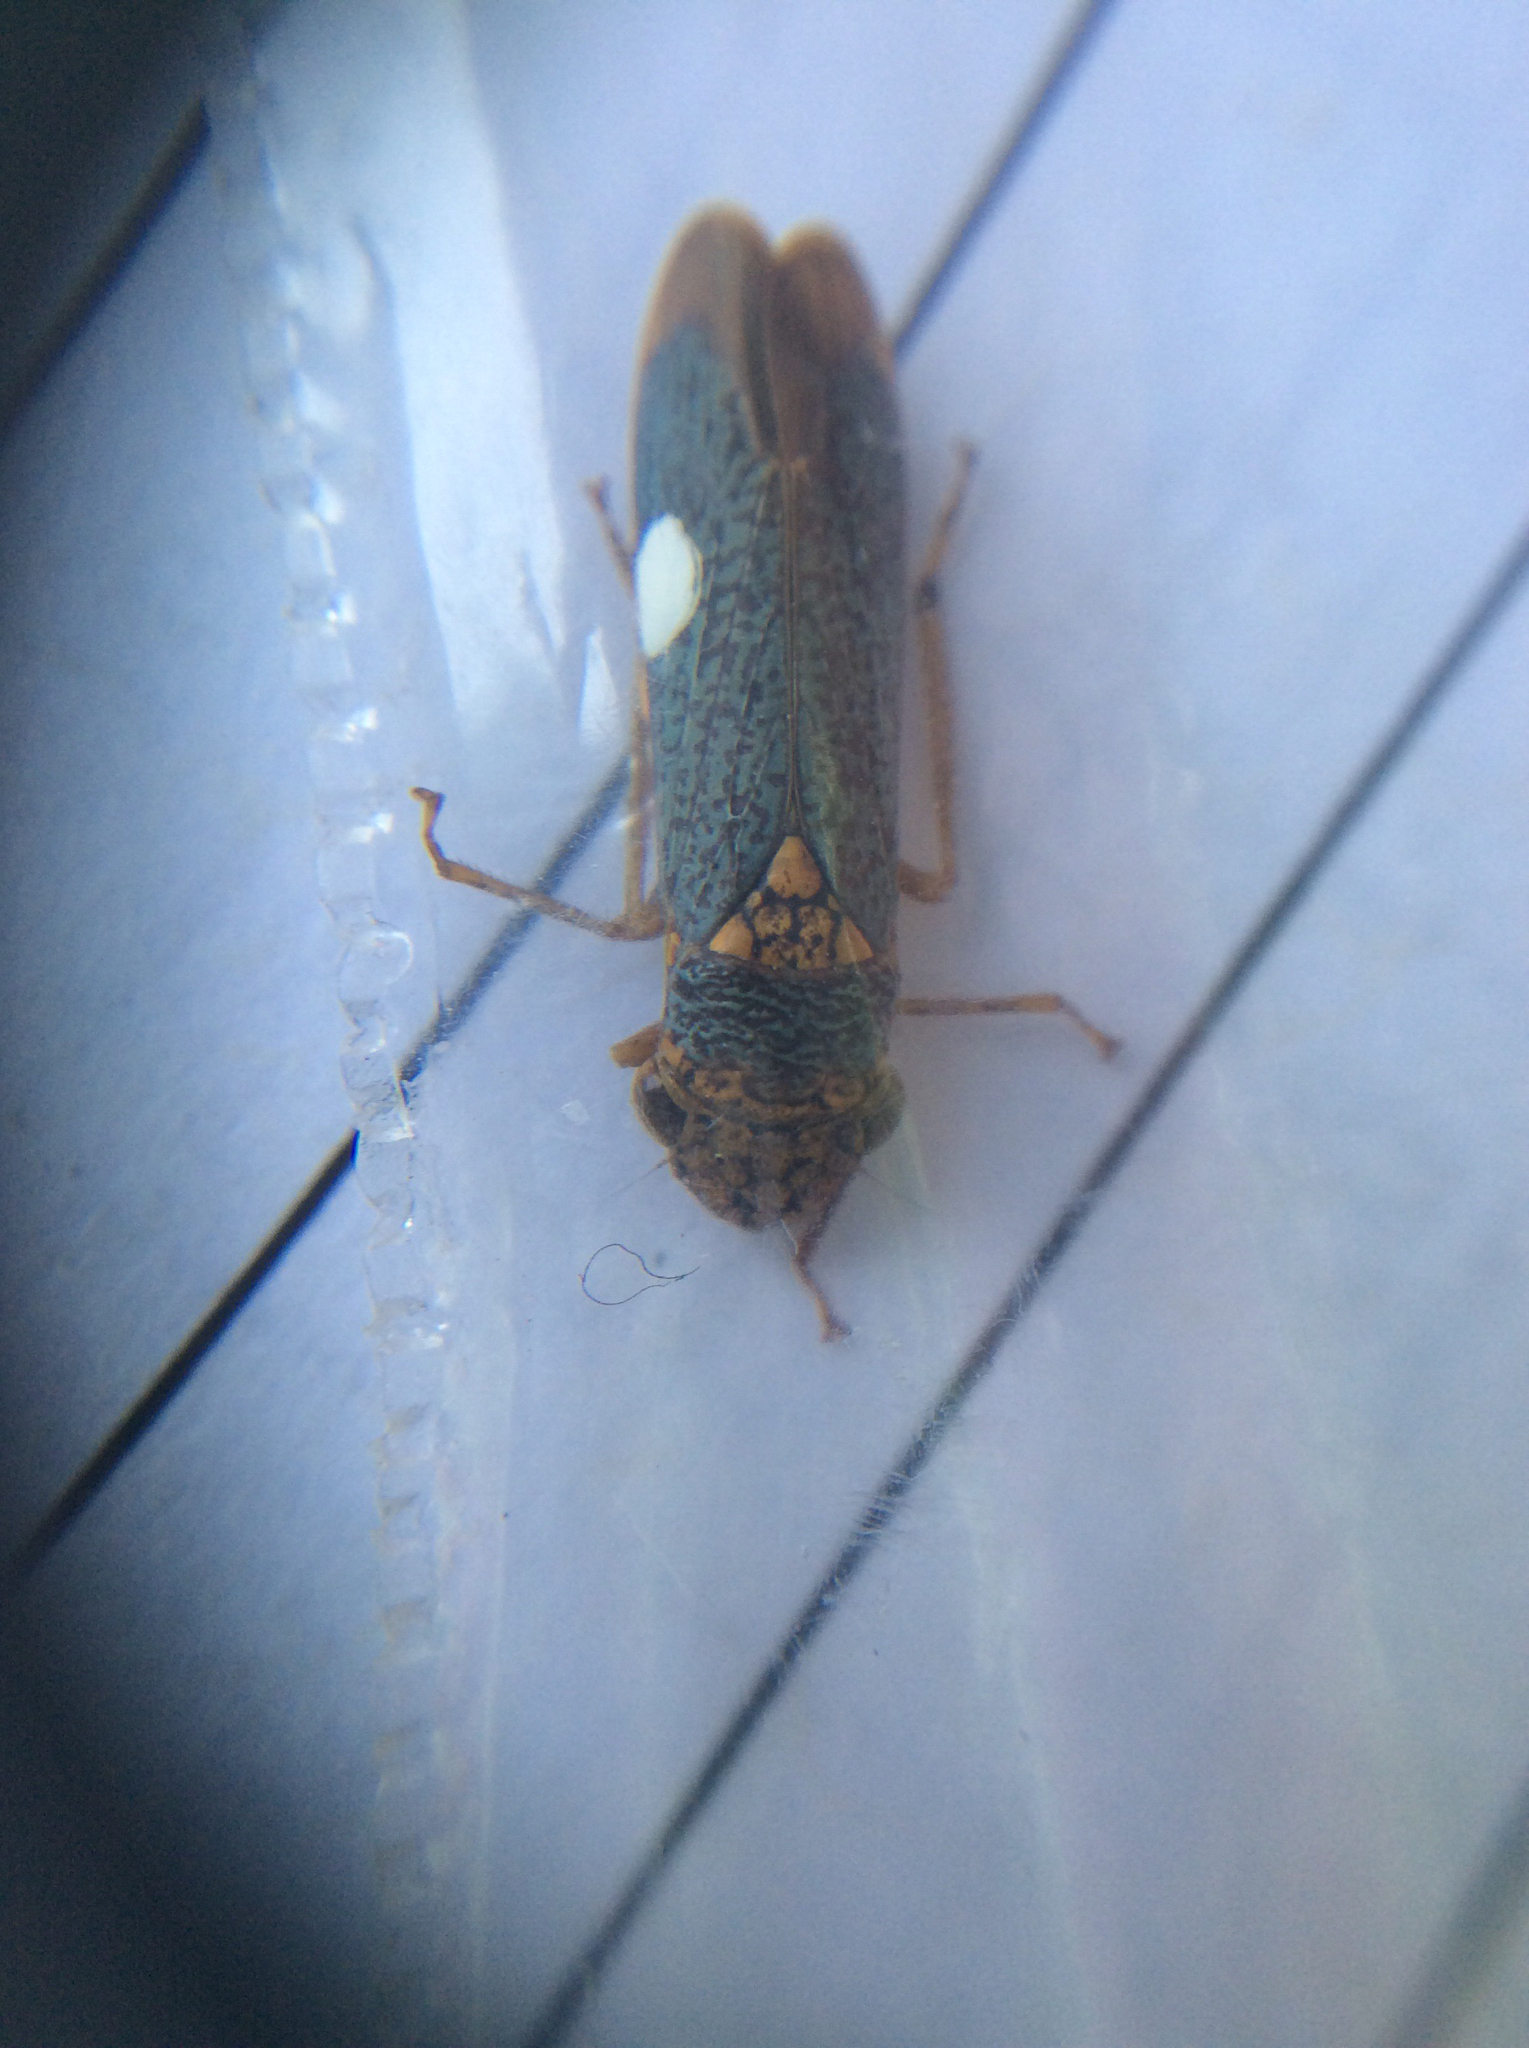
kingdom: Animalia
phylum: Arthropoda
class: Insecta
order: Hemiptera
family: Cicadellidae
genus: Oncometopia
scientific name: Oncometopia orbona
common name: Broad-headed sharpshooter
